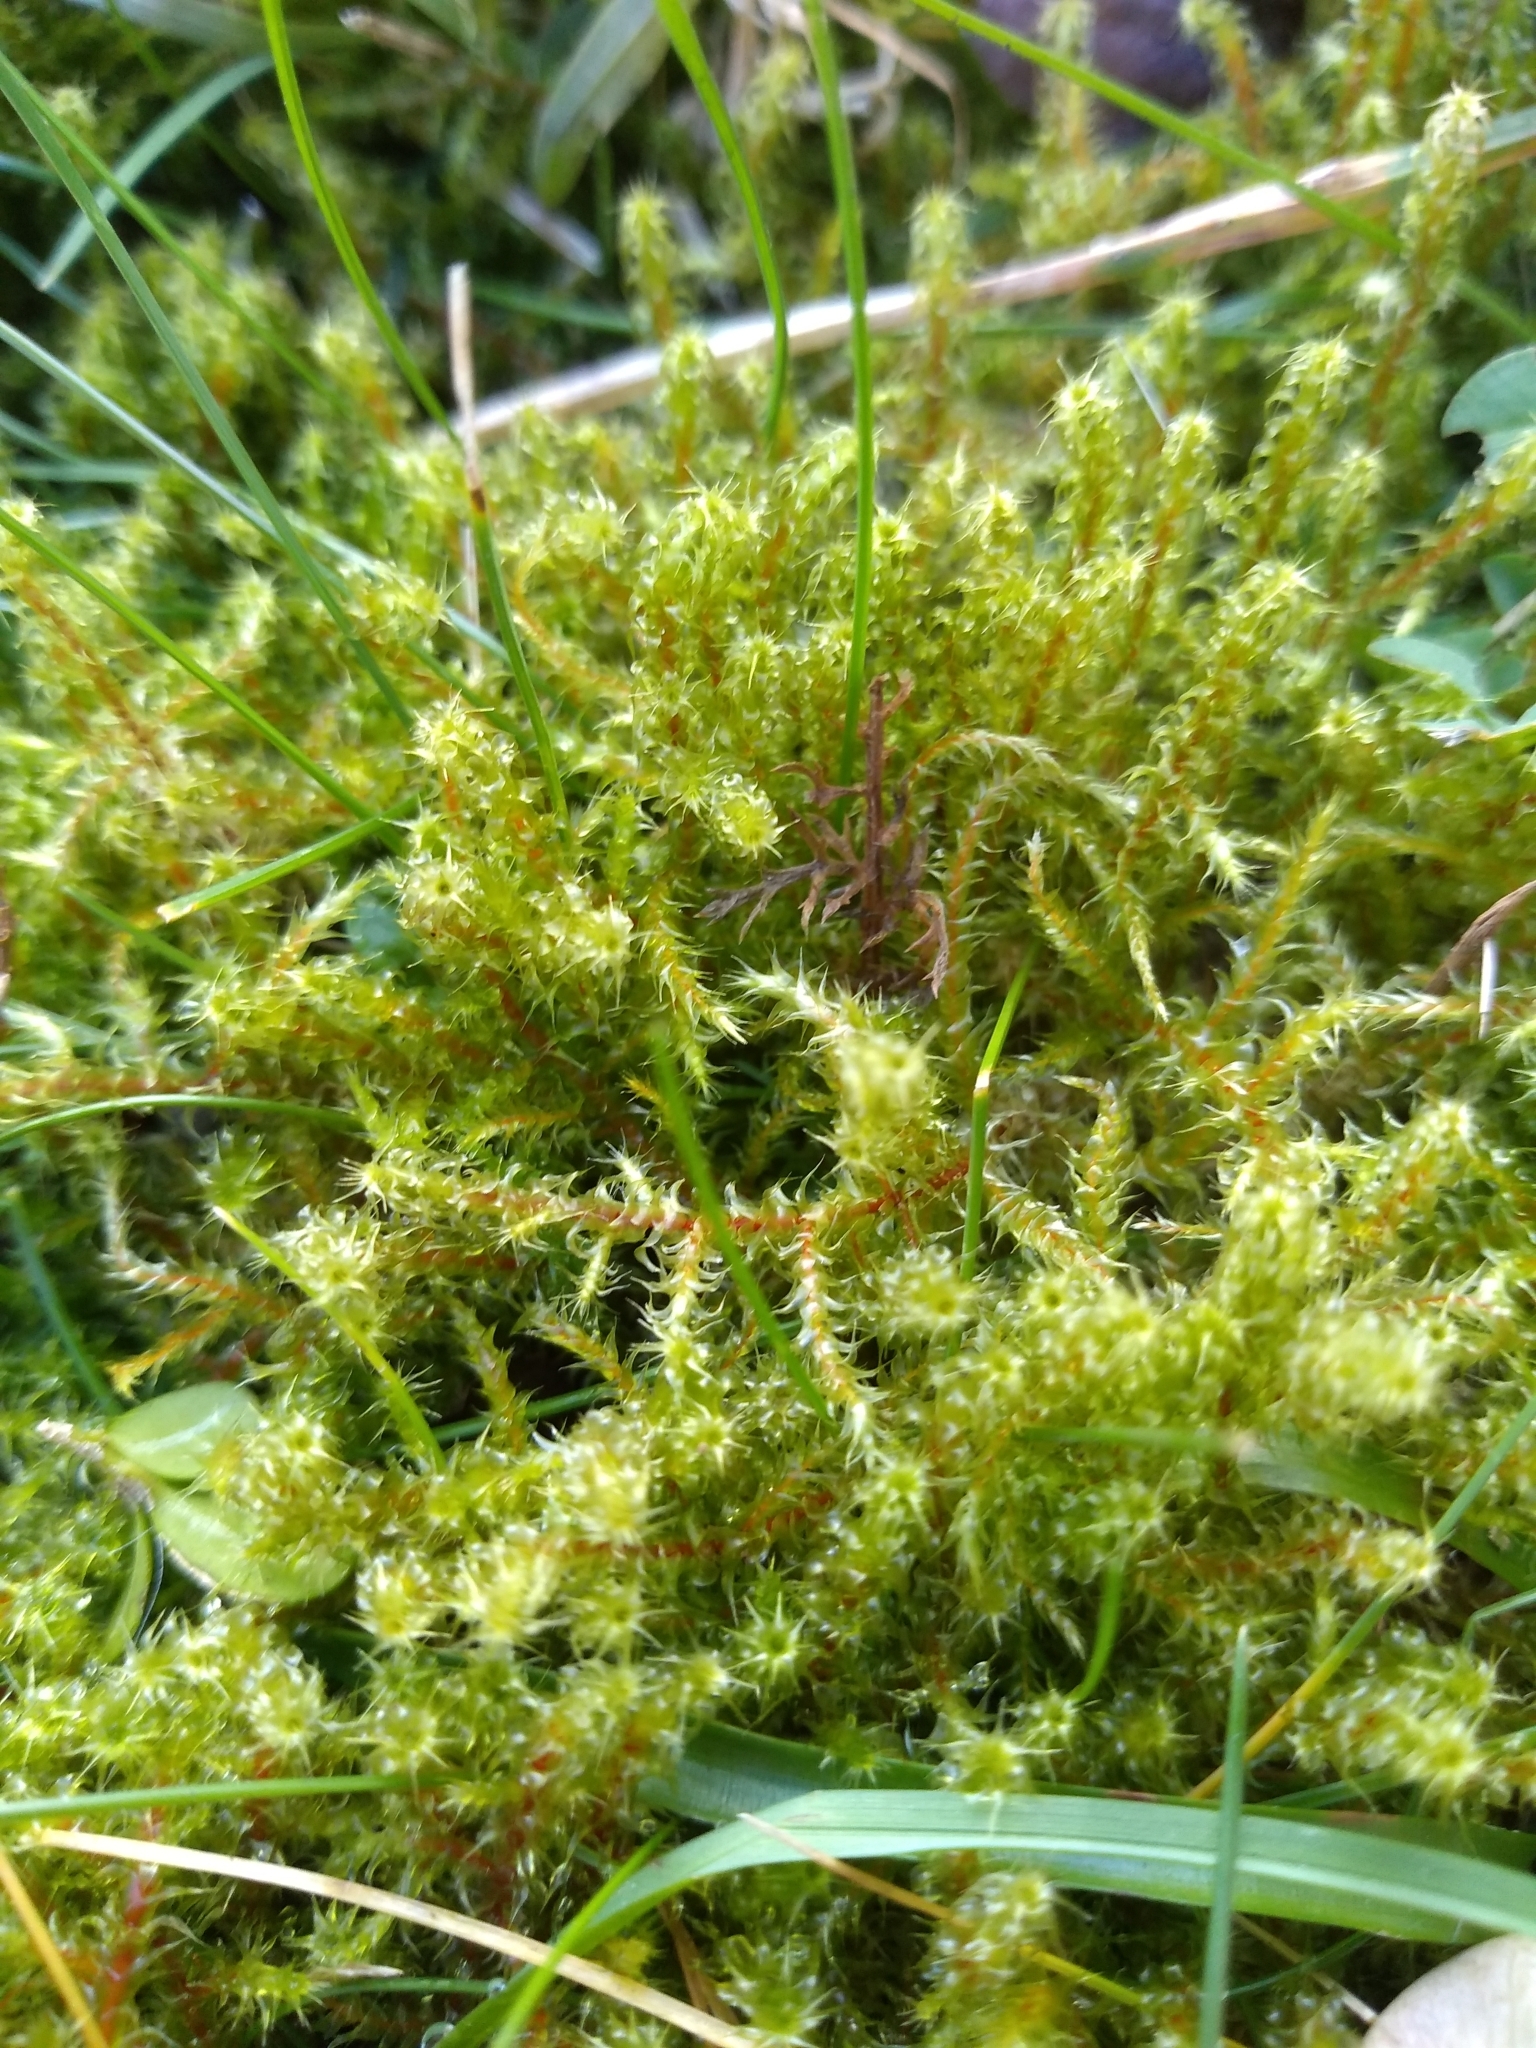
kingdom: Plantae
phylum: Bryophyta
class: Bryopsida
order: Hypnales
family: Hylocomiaceae
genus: Rhytidiadelphus
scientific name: Rhytidiadelphus squarrosus
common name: Springy turf-moss
